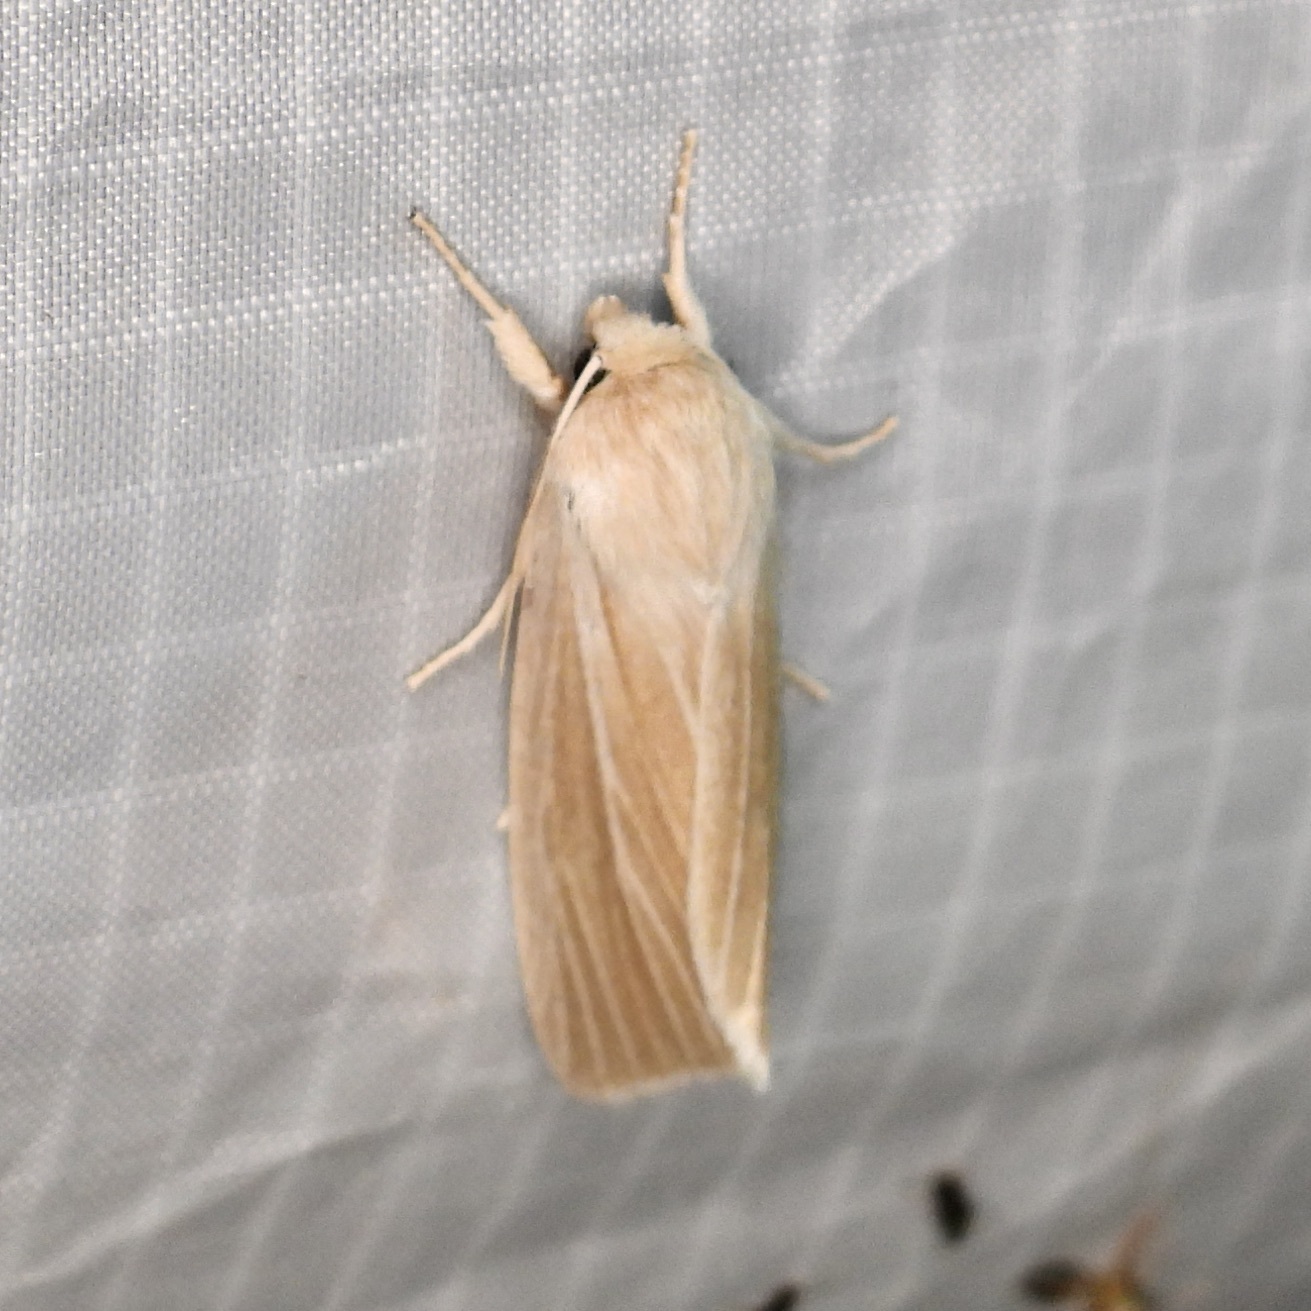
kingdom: Animalia
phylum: Arthropoda
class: Insecta
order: Lepidoptera
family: Noctuidae
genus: Acronicta
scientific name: Acronicta insularis
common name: Henry's marsh moth
